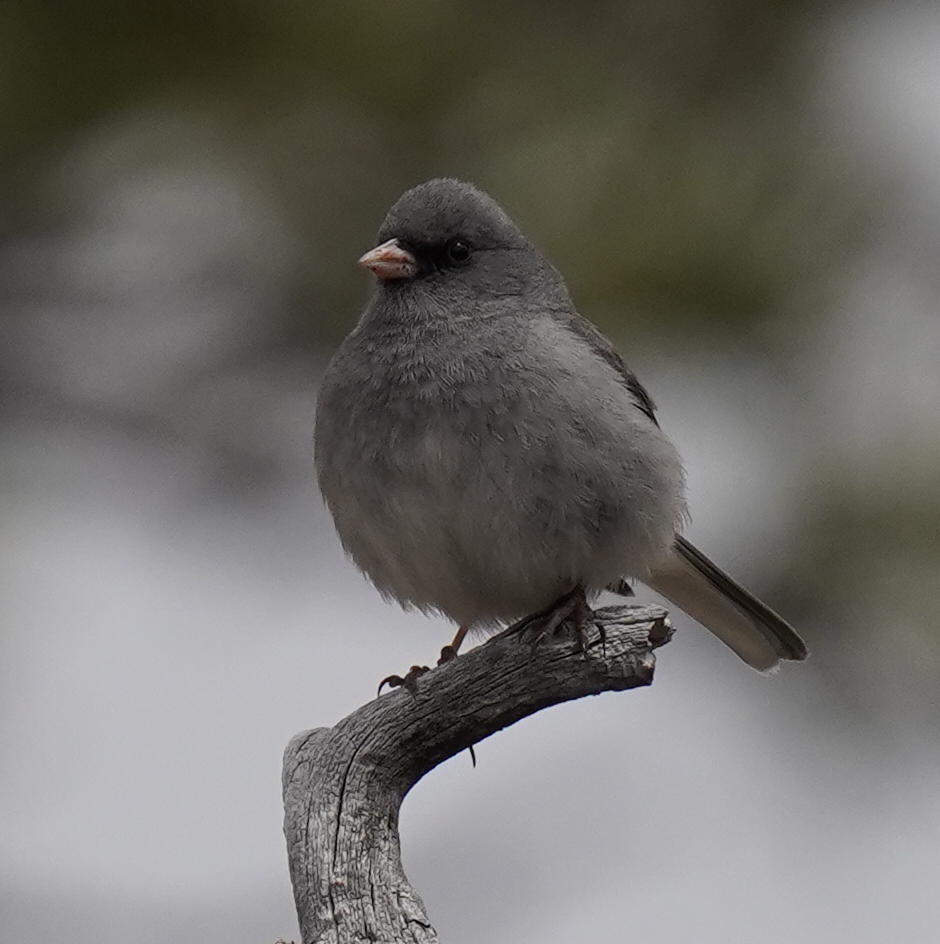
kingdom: Animalia
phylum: Chordata
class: Aves
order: Passeriformes
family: Passerellidae
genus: Junco
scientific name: Junco hyemalis
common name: Dark-eyed junco
